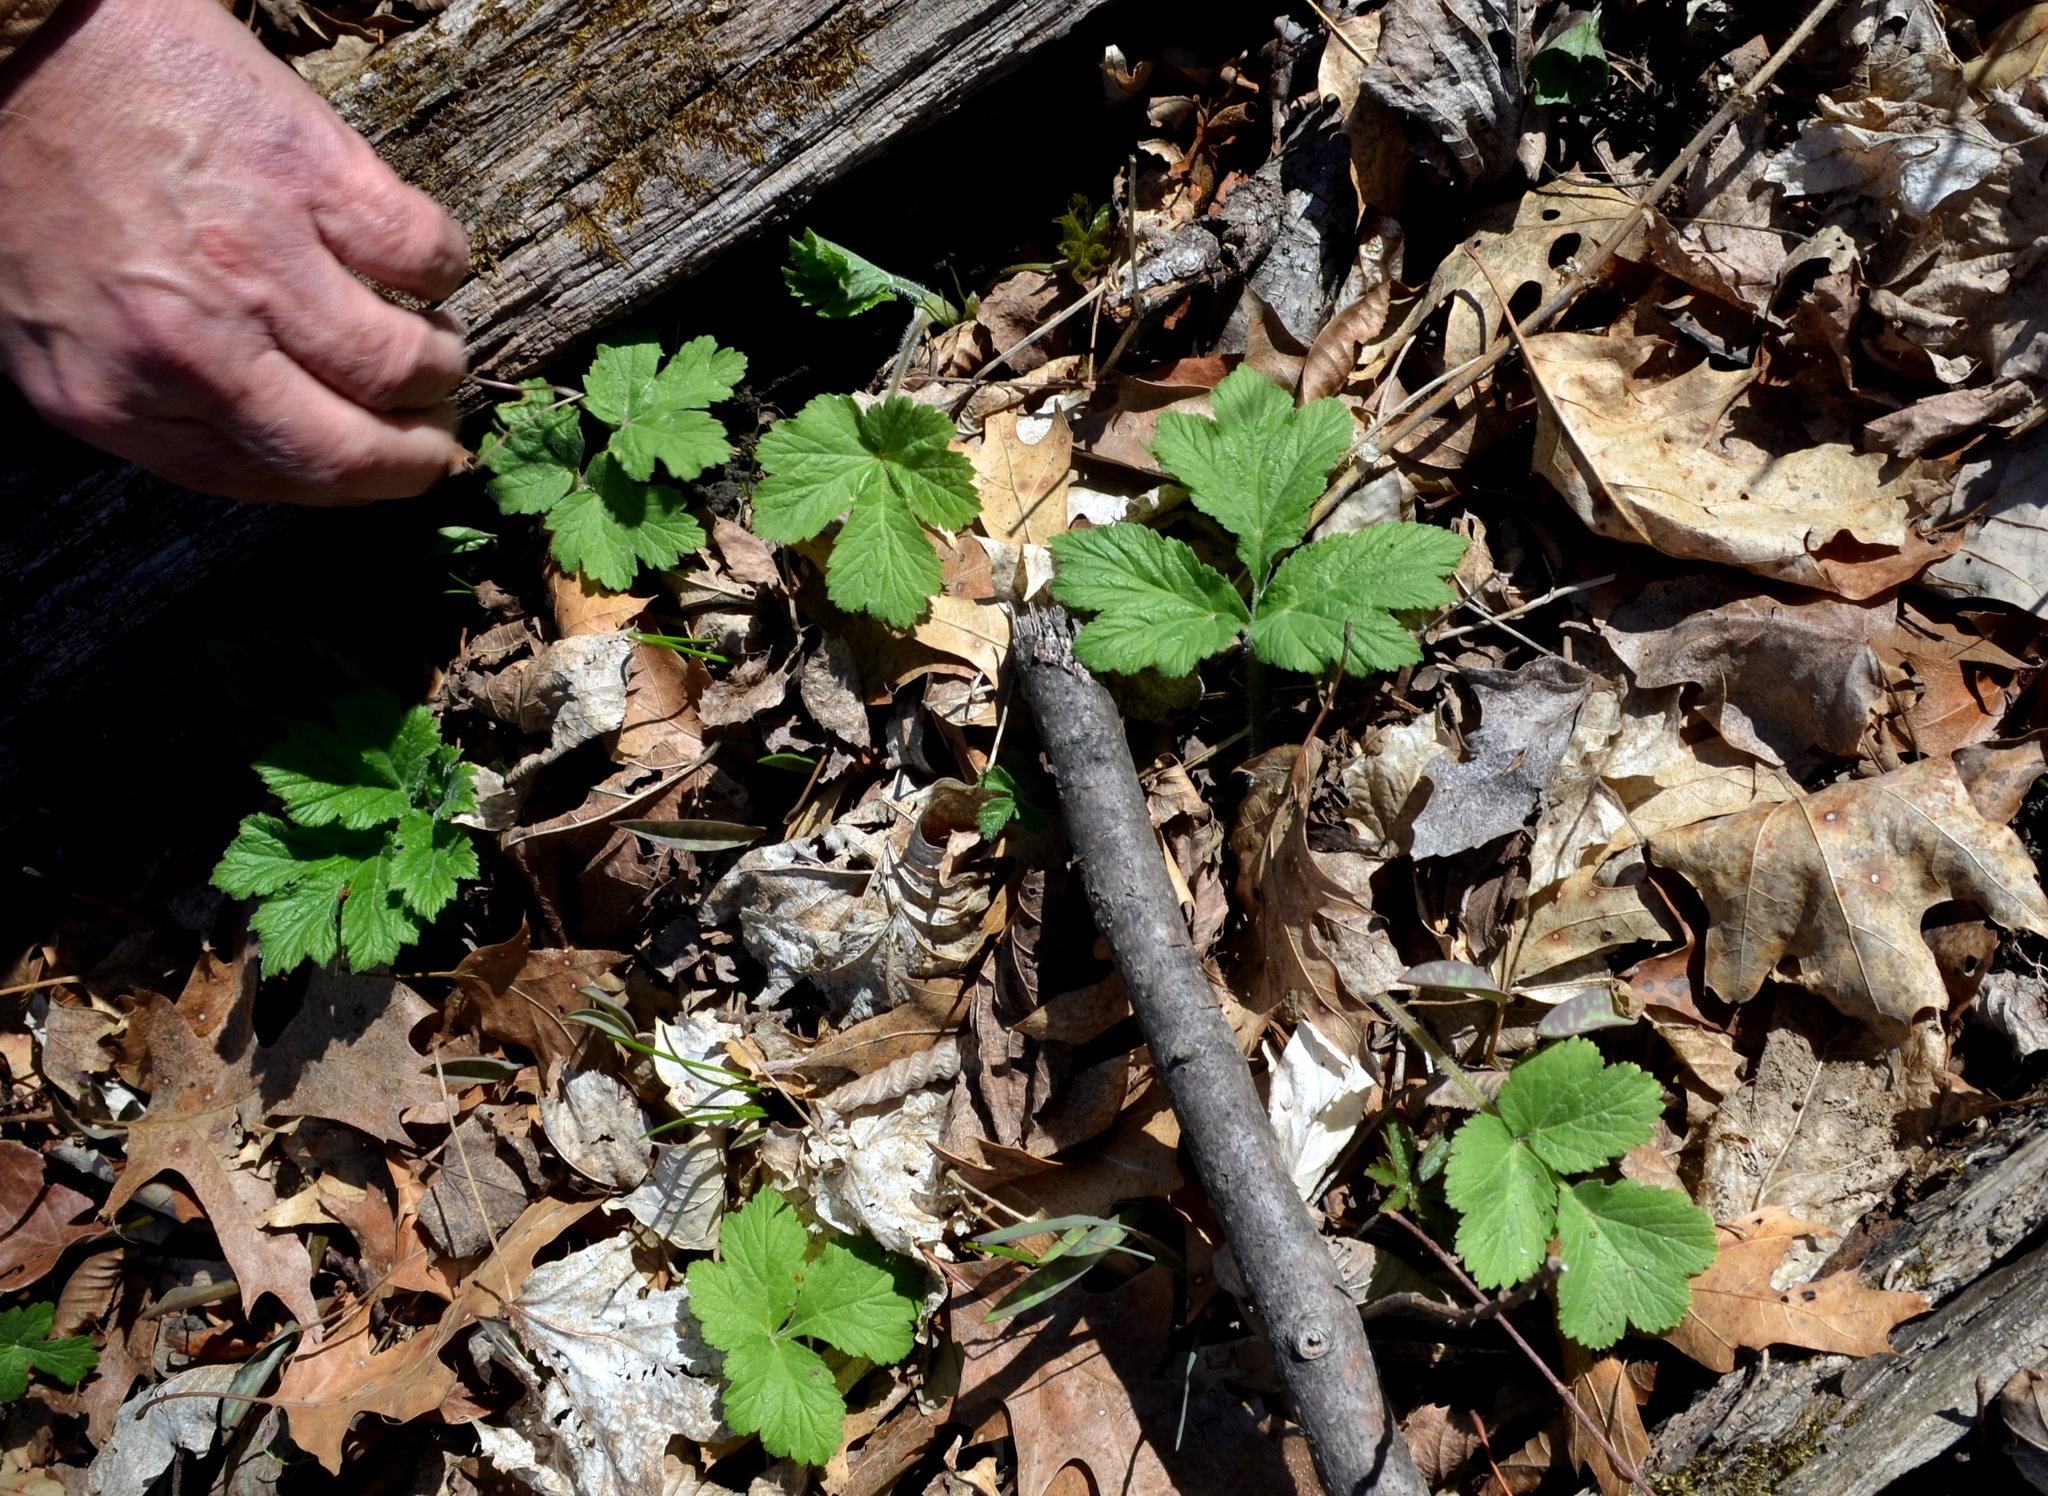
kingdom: Plantae
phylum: Tracheophyta
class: Magnoliopsida
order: Apiales
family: Apiaceae
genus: Heracleum
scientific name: Heracleum maximum
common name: American cow parsnip
